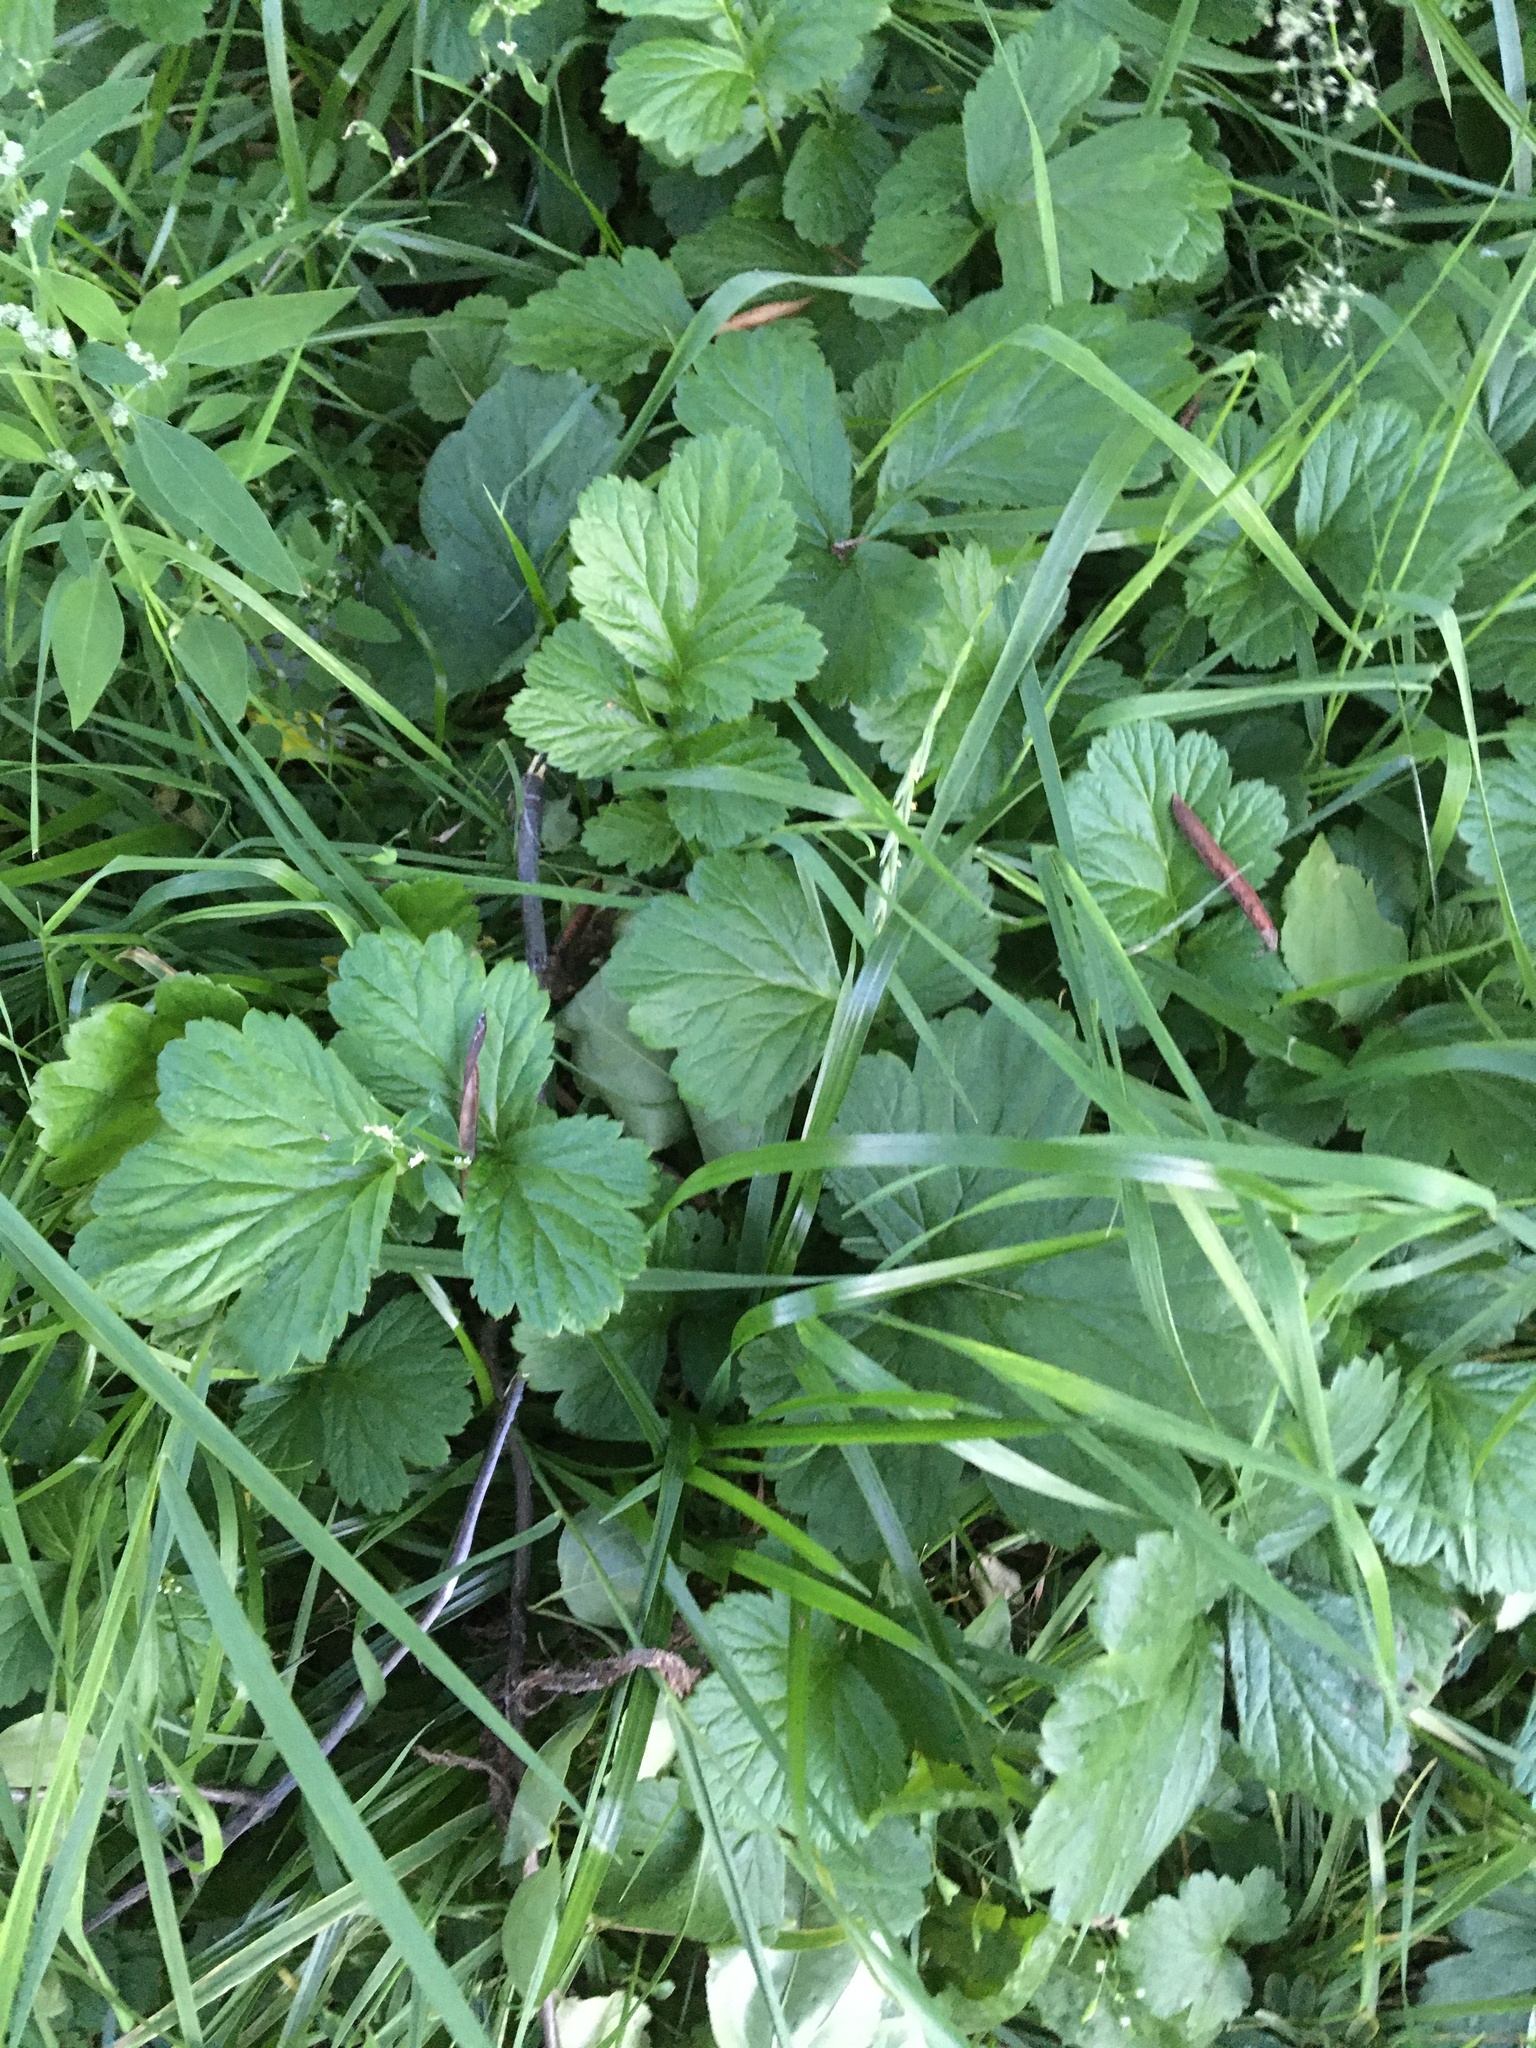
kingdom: Plantae
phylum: Tracheophyta
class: Magnoliopsida
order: Rosales
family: Rosaceae
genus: Geum
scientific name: Geum aleppicum
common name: Yellow avens
